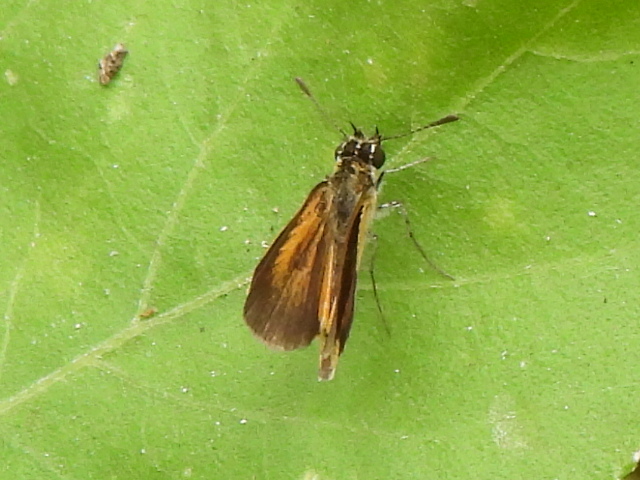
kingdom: Animalia
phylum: Arthropoda
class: Insecta
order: Lepidoptera
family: Hesperiidae
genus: Ancyloxypha
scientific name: Ancyloxypha numitor
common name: Least skipper
